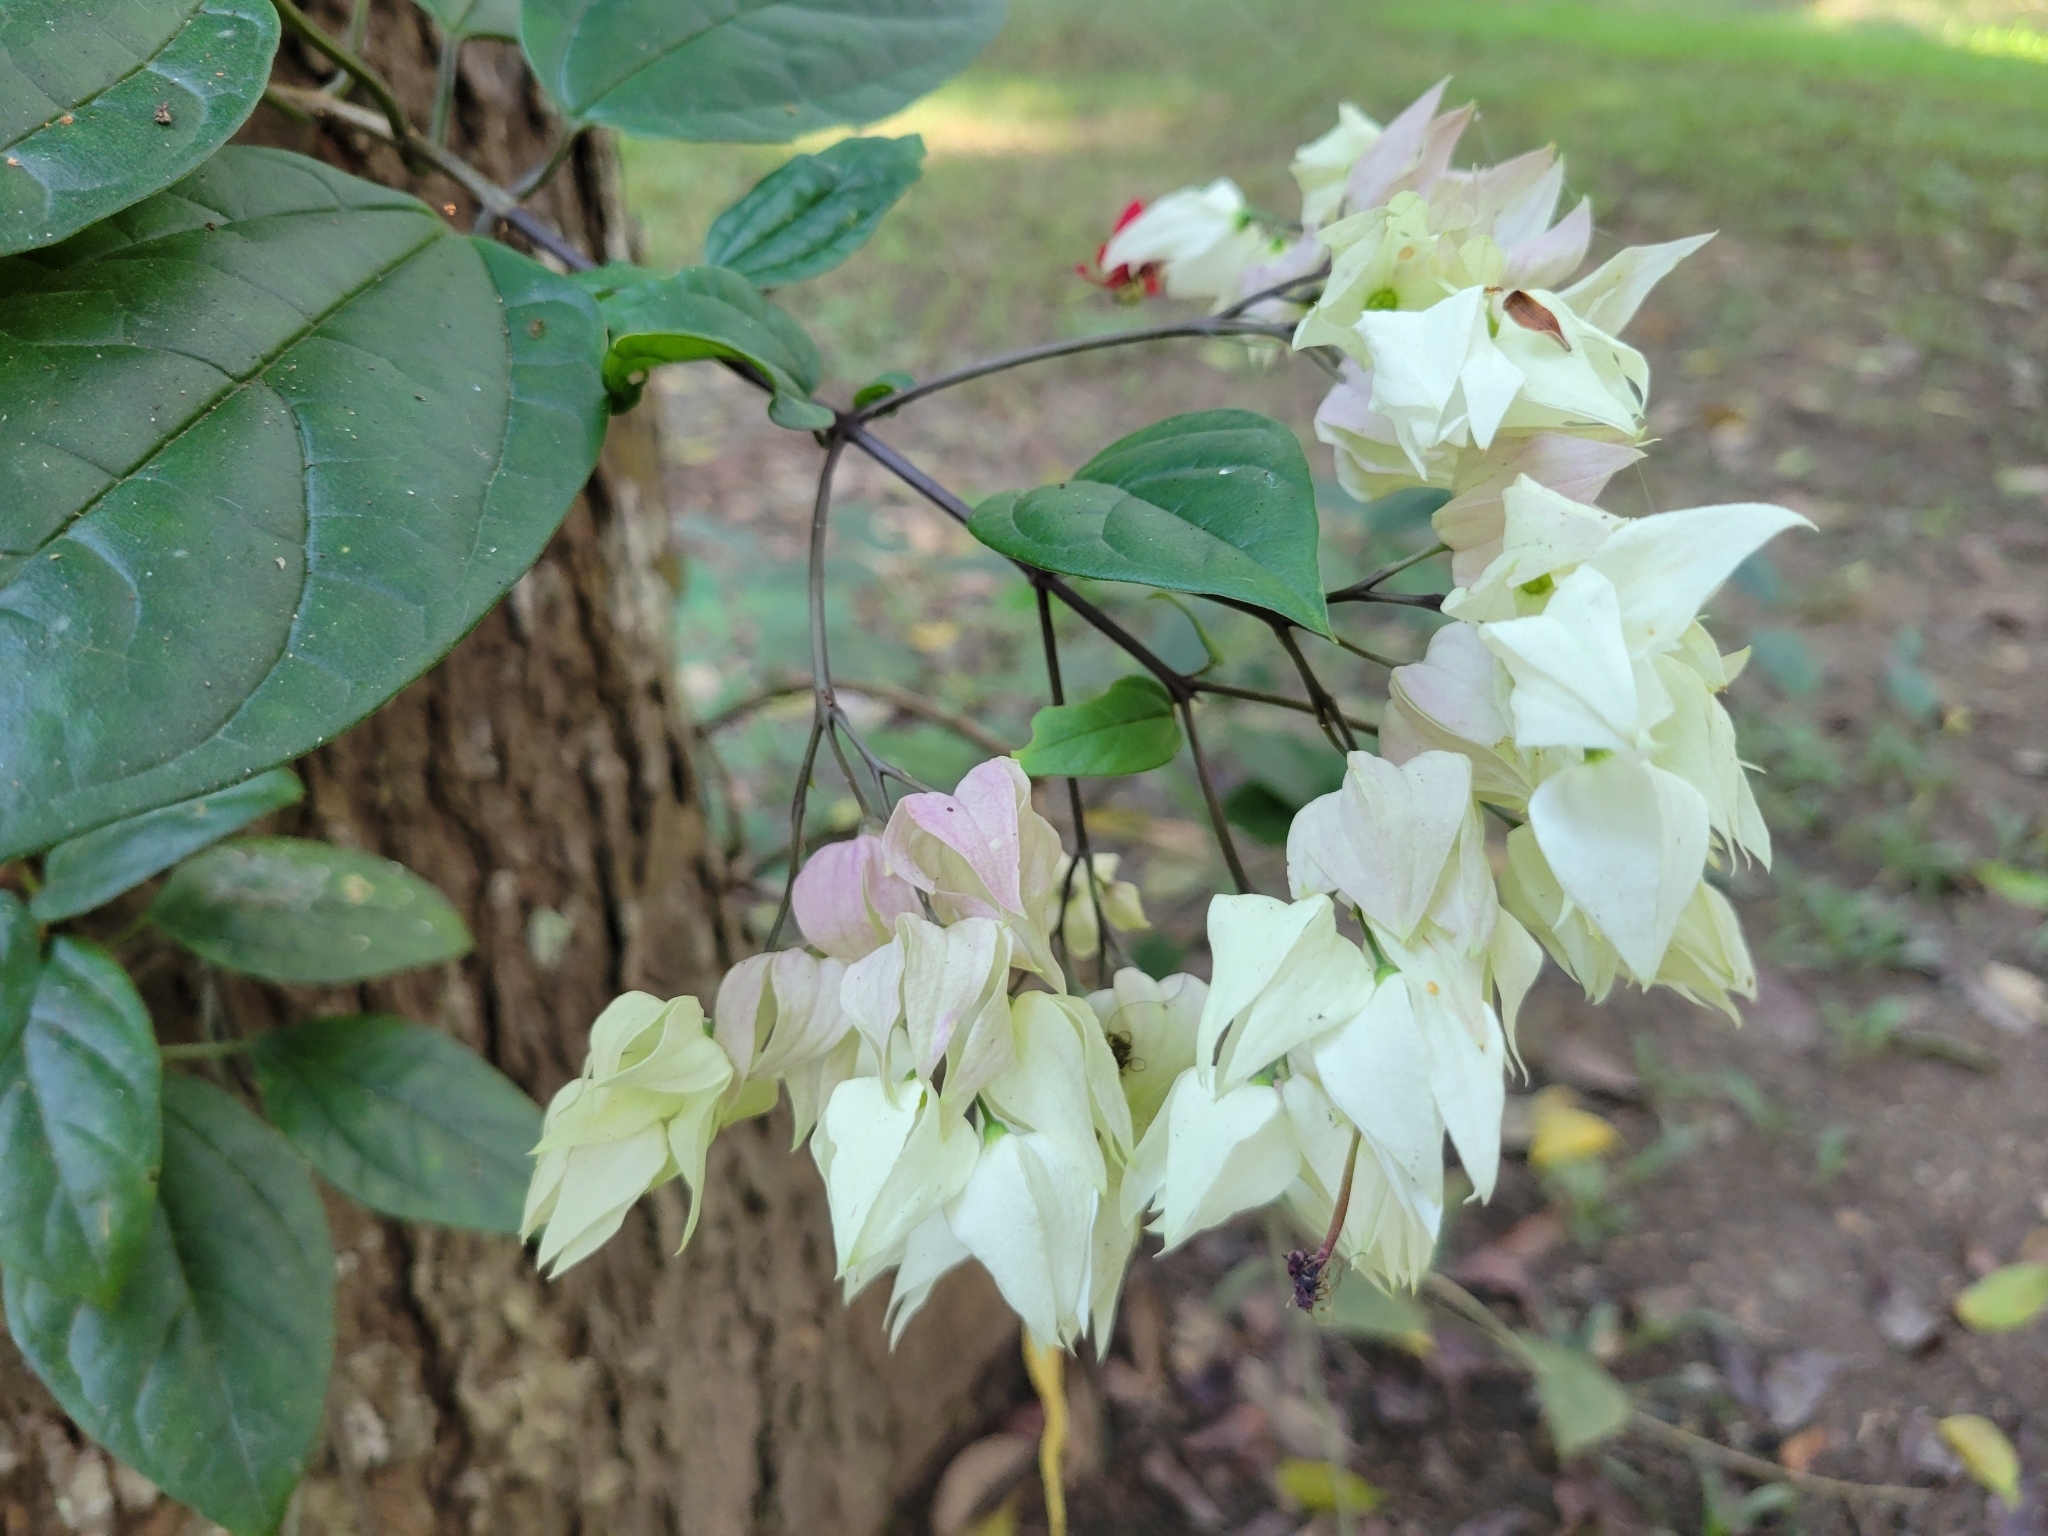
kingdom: Plantae
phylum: Tracheophyta
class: Magnoliopsida
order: Lamiales
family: Lamiaceae
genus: Clerodendrum
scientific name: Clerodendrum thomsoniae
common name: Bagflower
